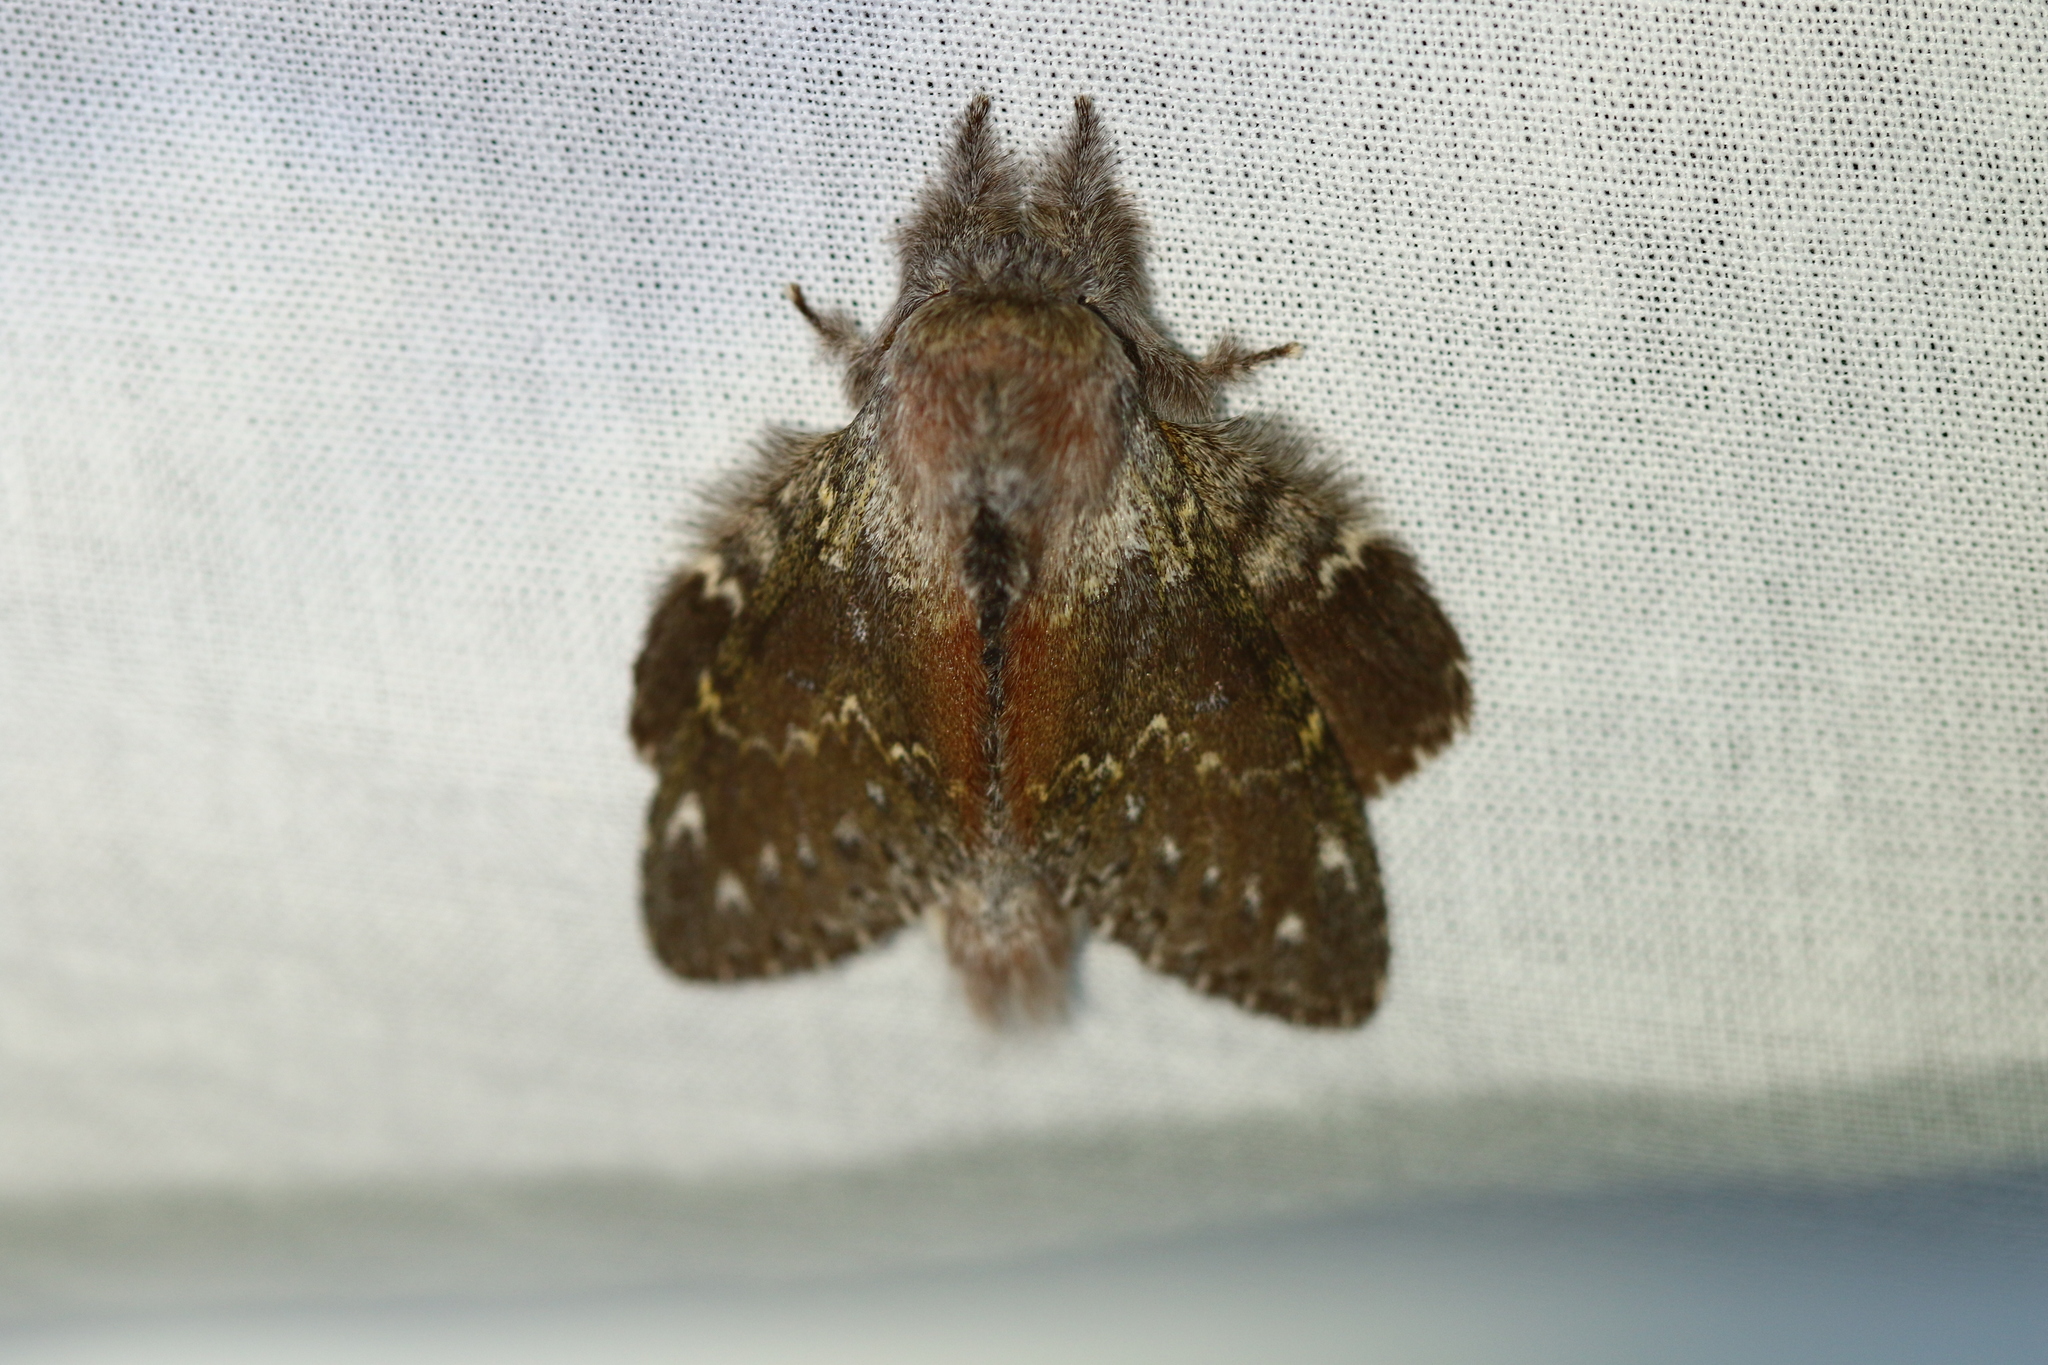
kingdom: Animalia
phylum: Arthropoda
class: Insecta
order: Lepidoptera
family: Notodontidae
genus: Stauropus
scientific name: Stauropus fagi
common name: Lobster moth
